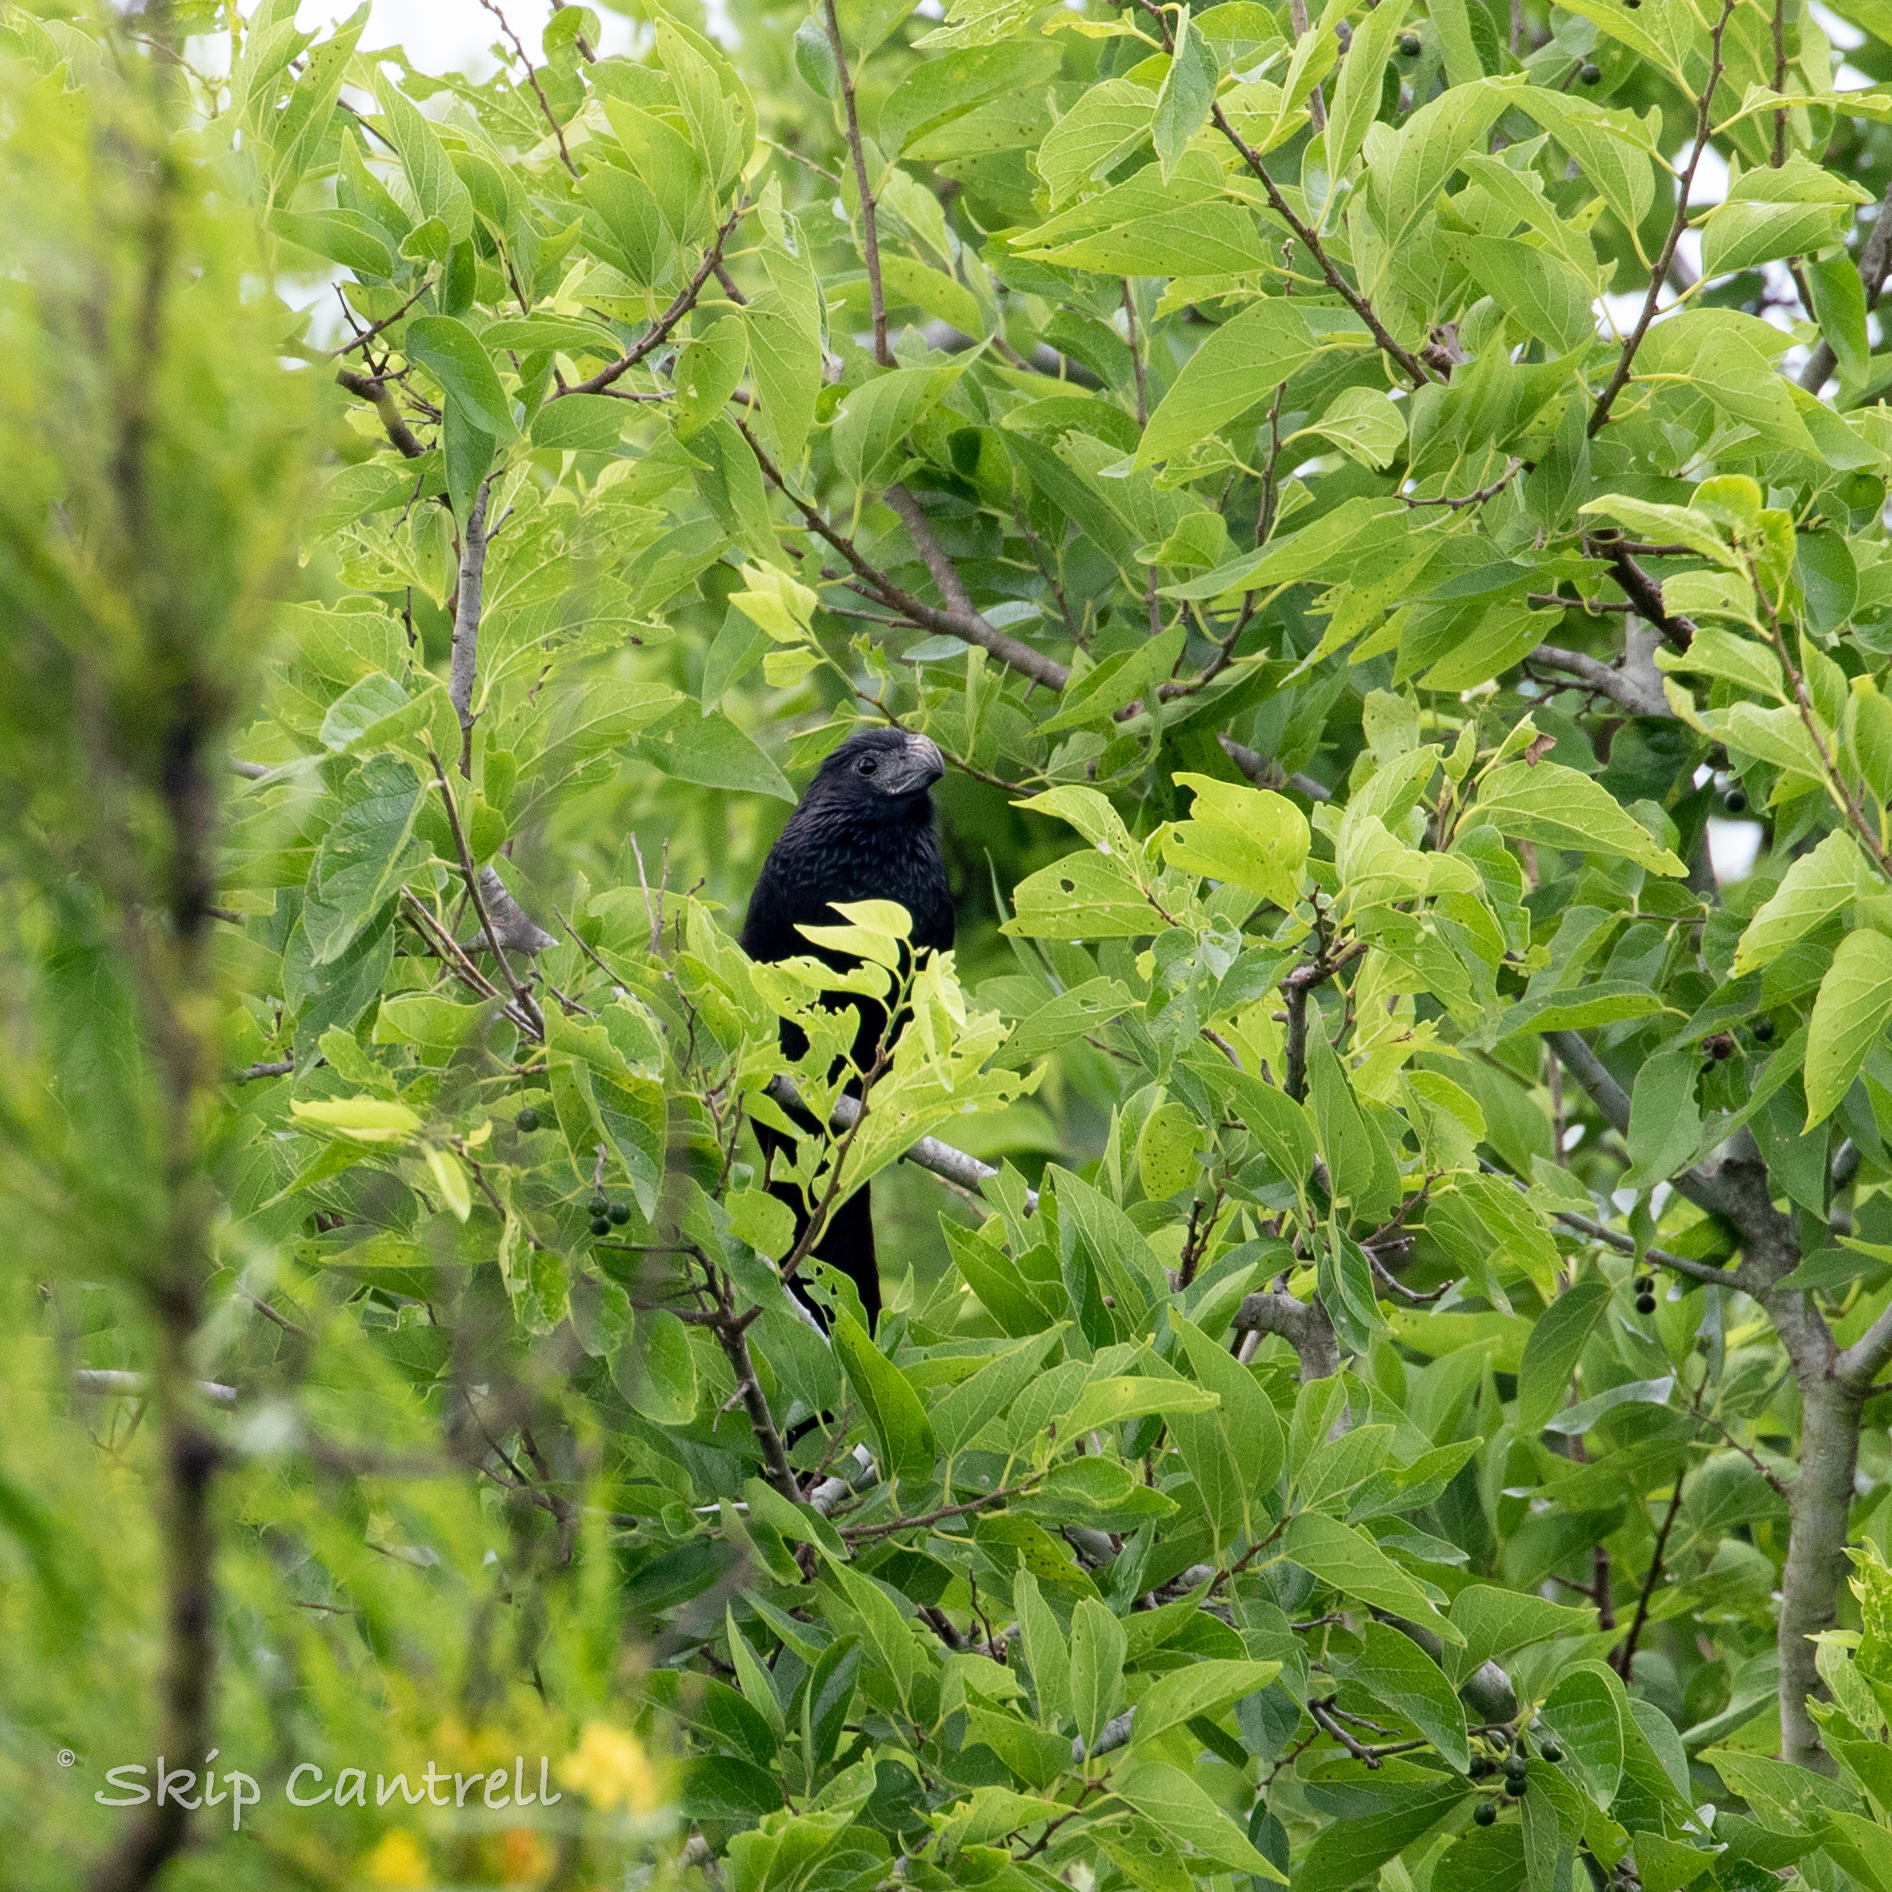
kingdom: Animalia
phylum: Chordata
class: Aves
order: Cuculiformes
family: Cuculidae
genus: Crotophaga
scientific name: Crotophaga sulcirostris
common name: Groove-billed ani
